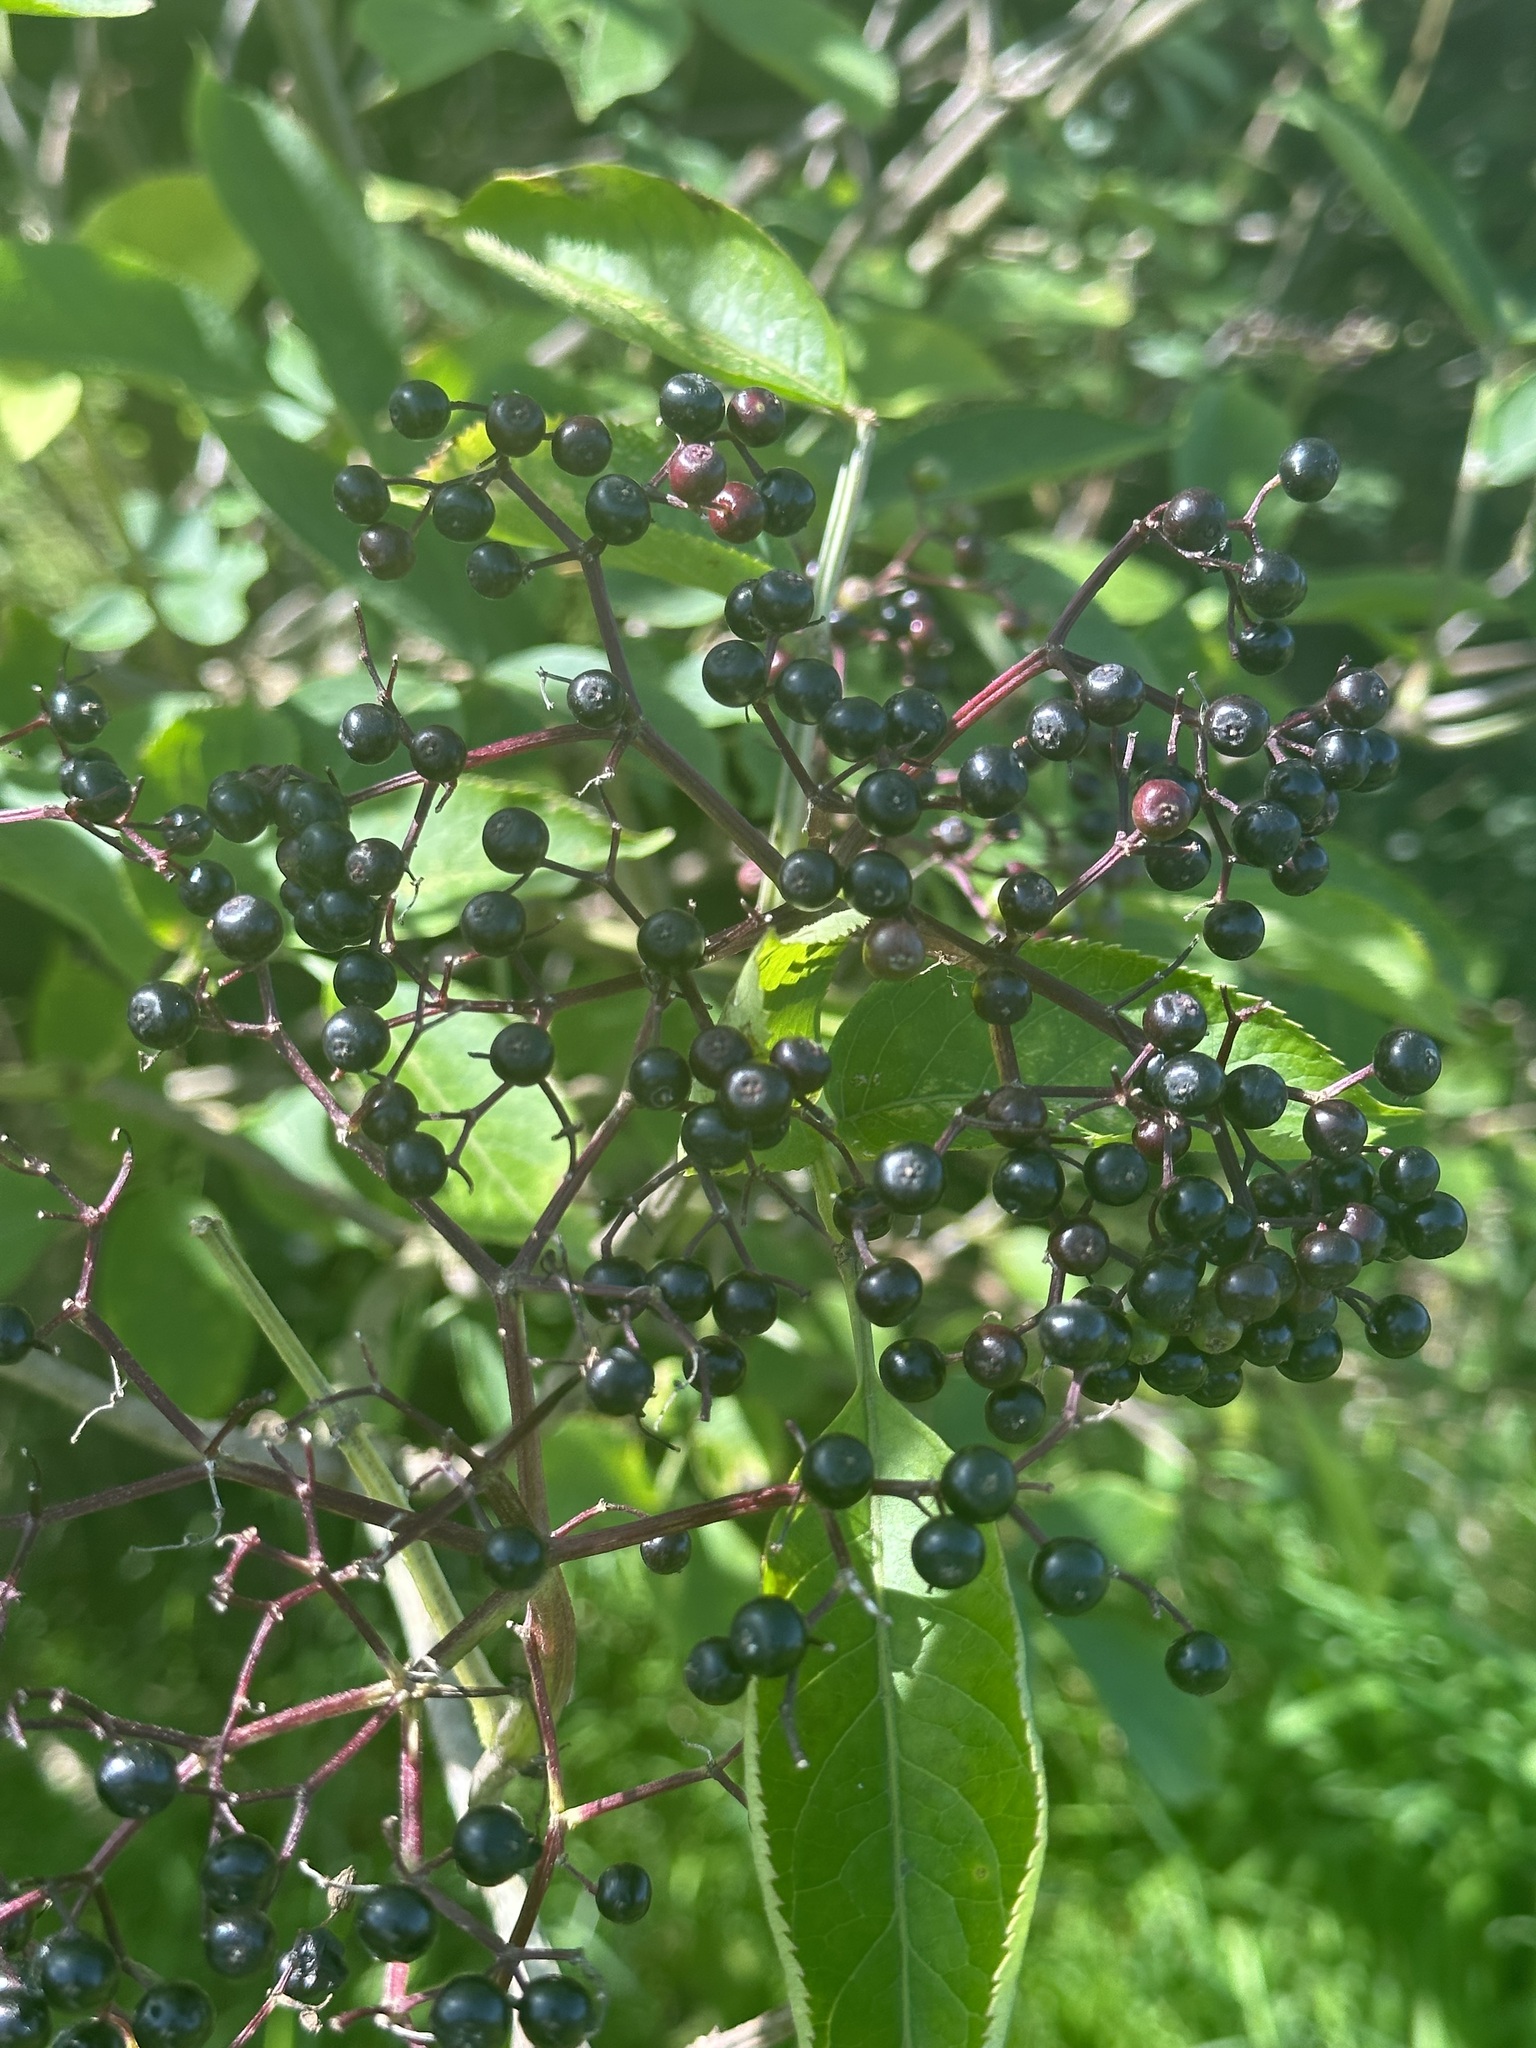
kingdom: Plantae
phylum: Tracheophyta
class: Magnoliopsida
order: Dipsacales
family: Viburnaceae
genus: Sambucus
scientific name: Sambucus nigra
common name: Elder
